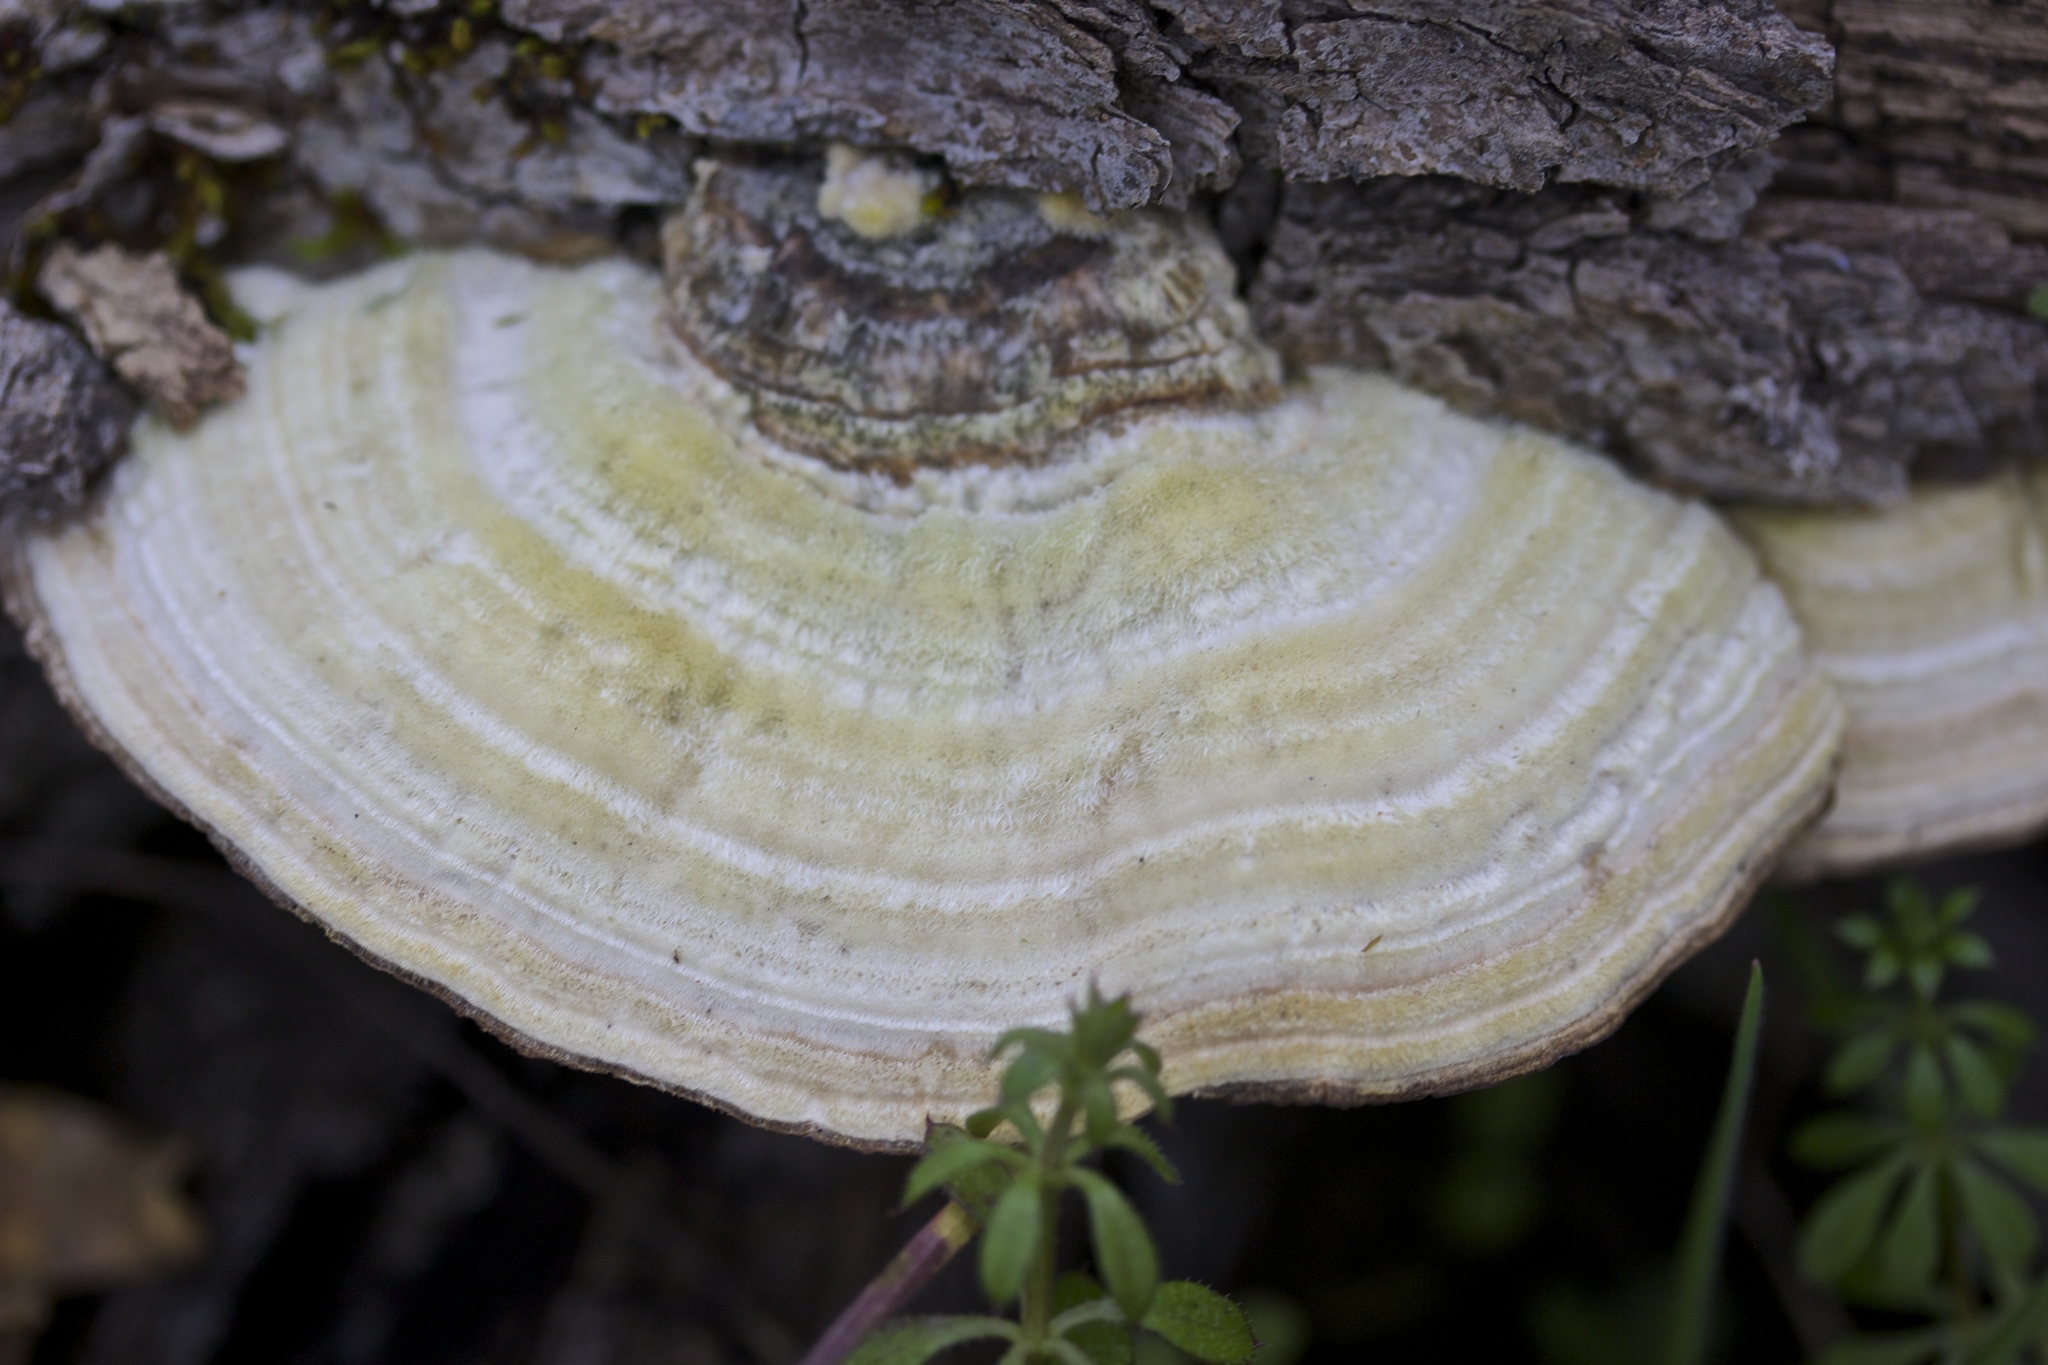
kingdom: Fungi
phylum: Basidiomycota
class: Agaricomycetes
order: Polyporales
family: Polyporaceae
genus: Lenzites
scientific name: Lenzites betulinus
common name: Birch mazegill
